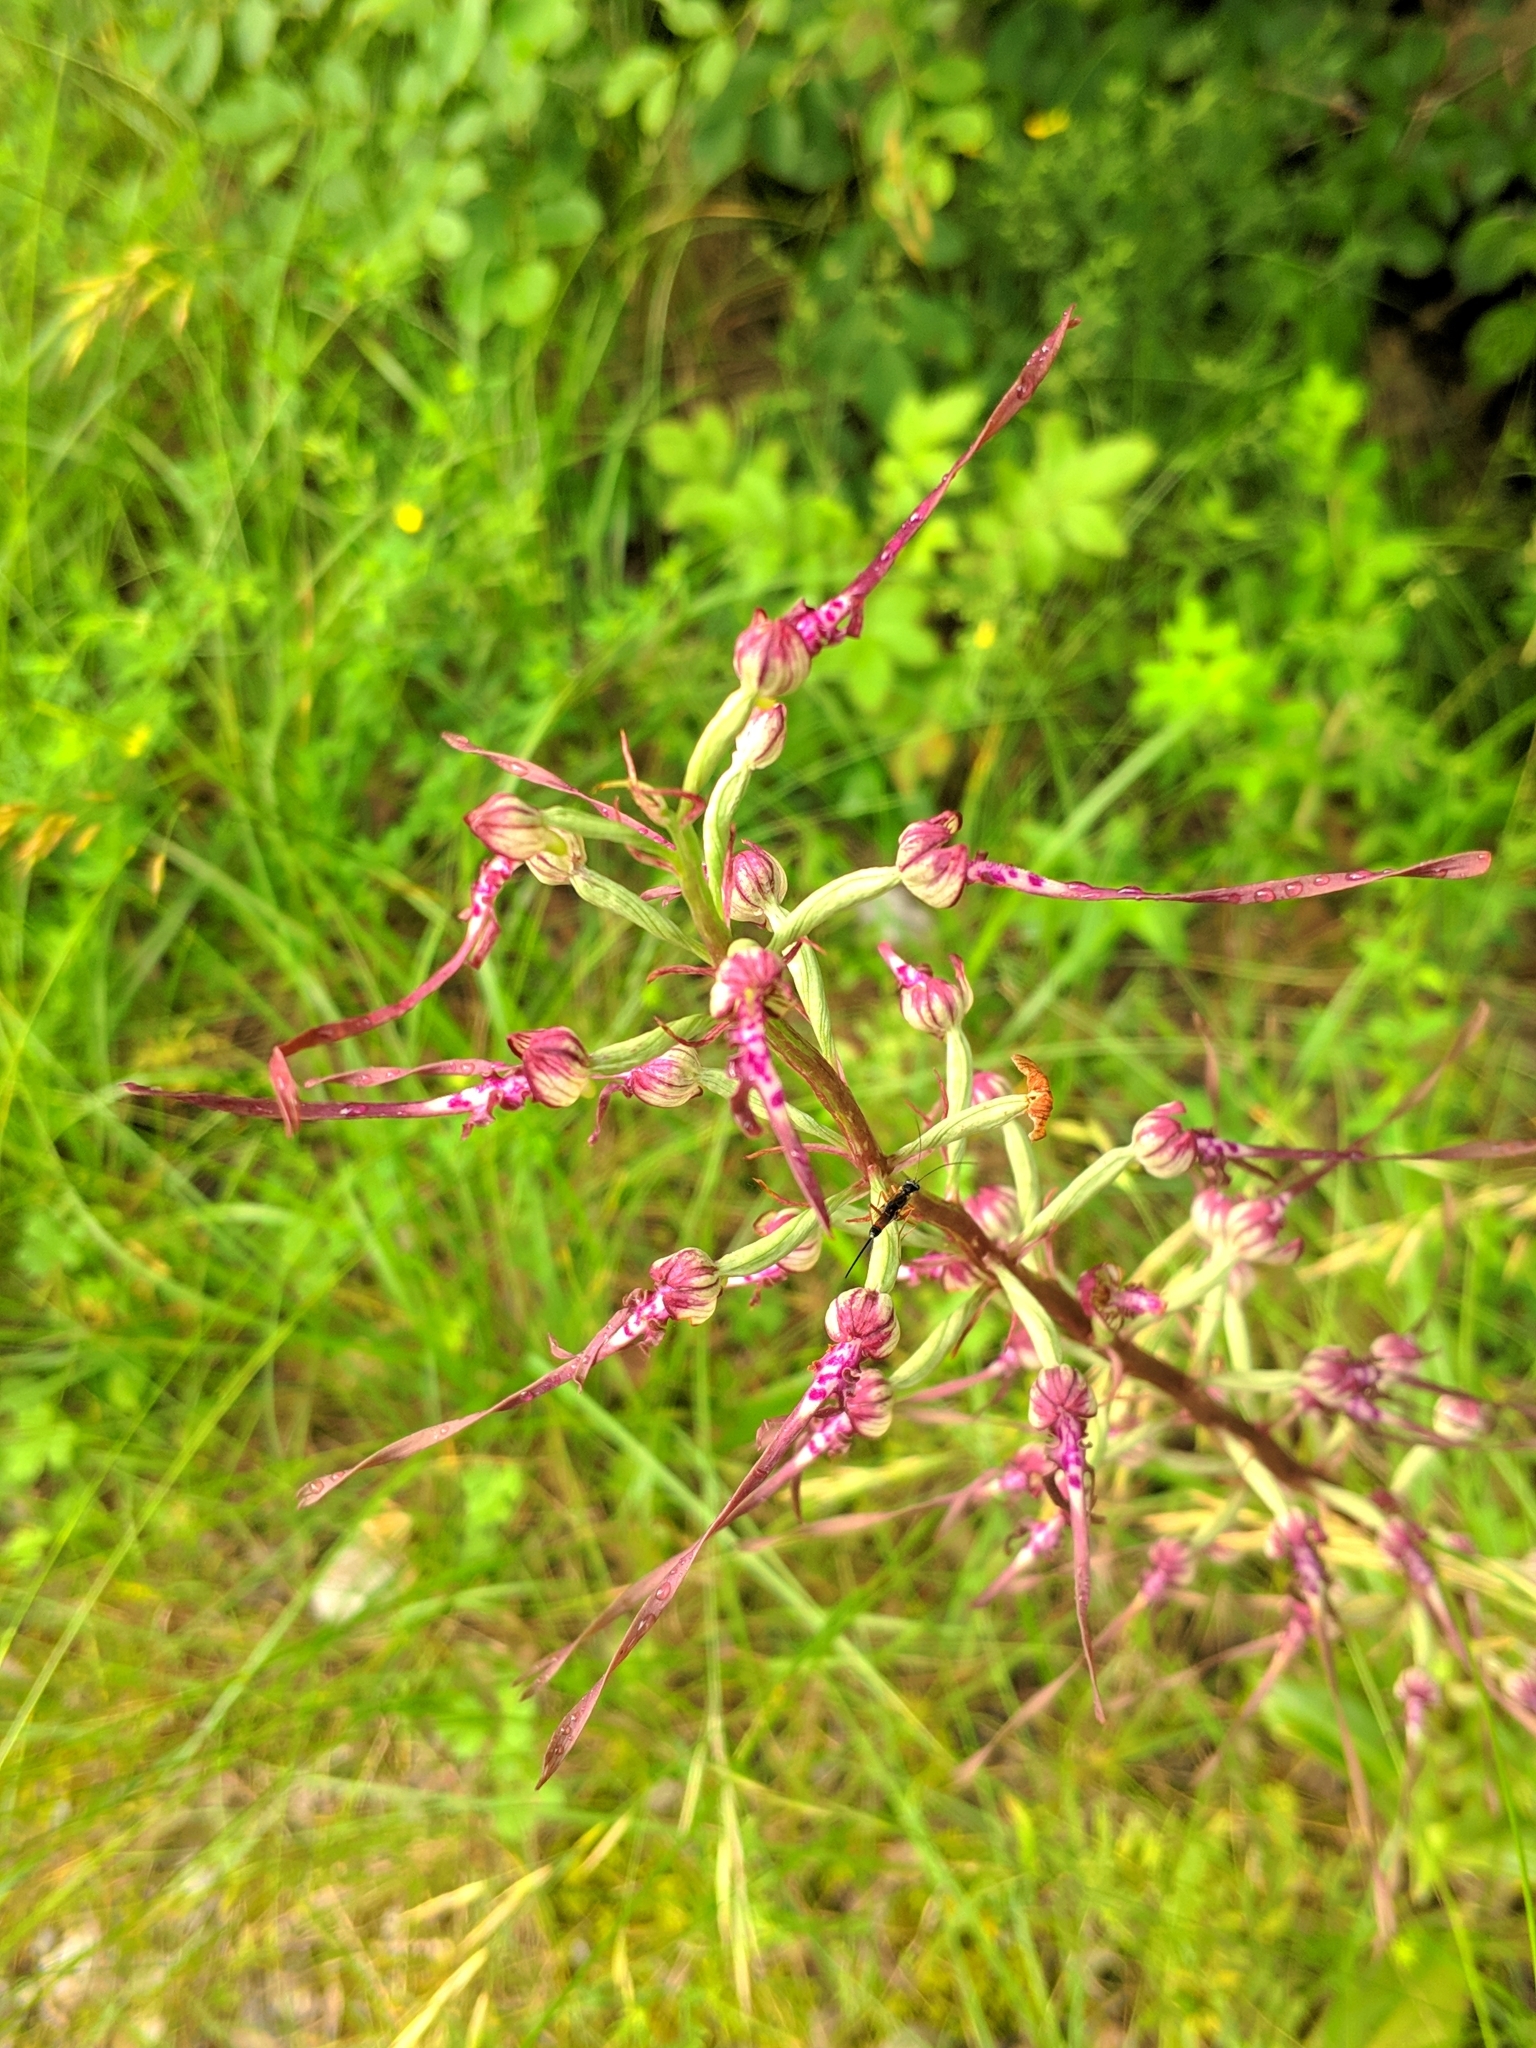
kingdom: Plantae
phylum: Tracheophyta
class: Liliopsida
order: Asparagales
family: Orchidaceae
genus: Himantoglossum
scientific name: Himantoglossum adriaticum
